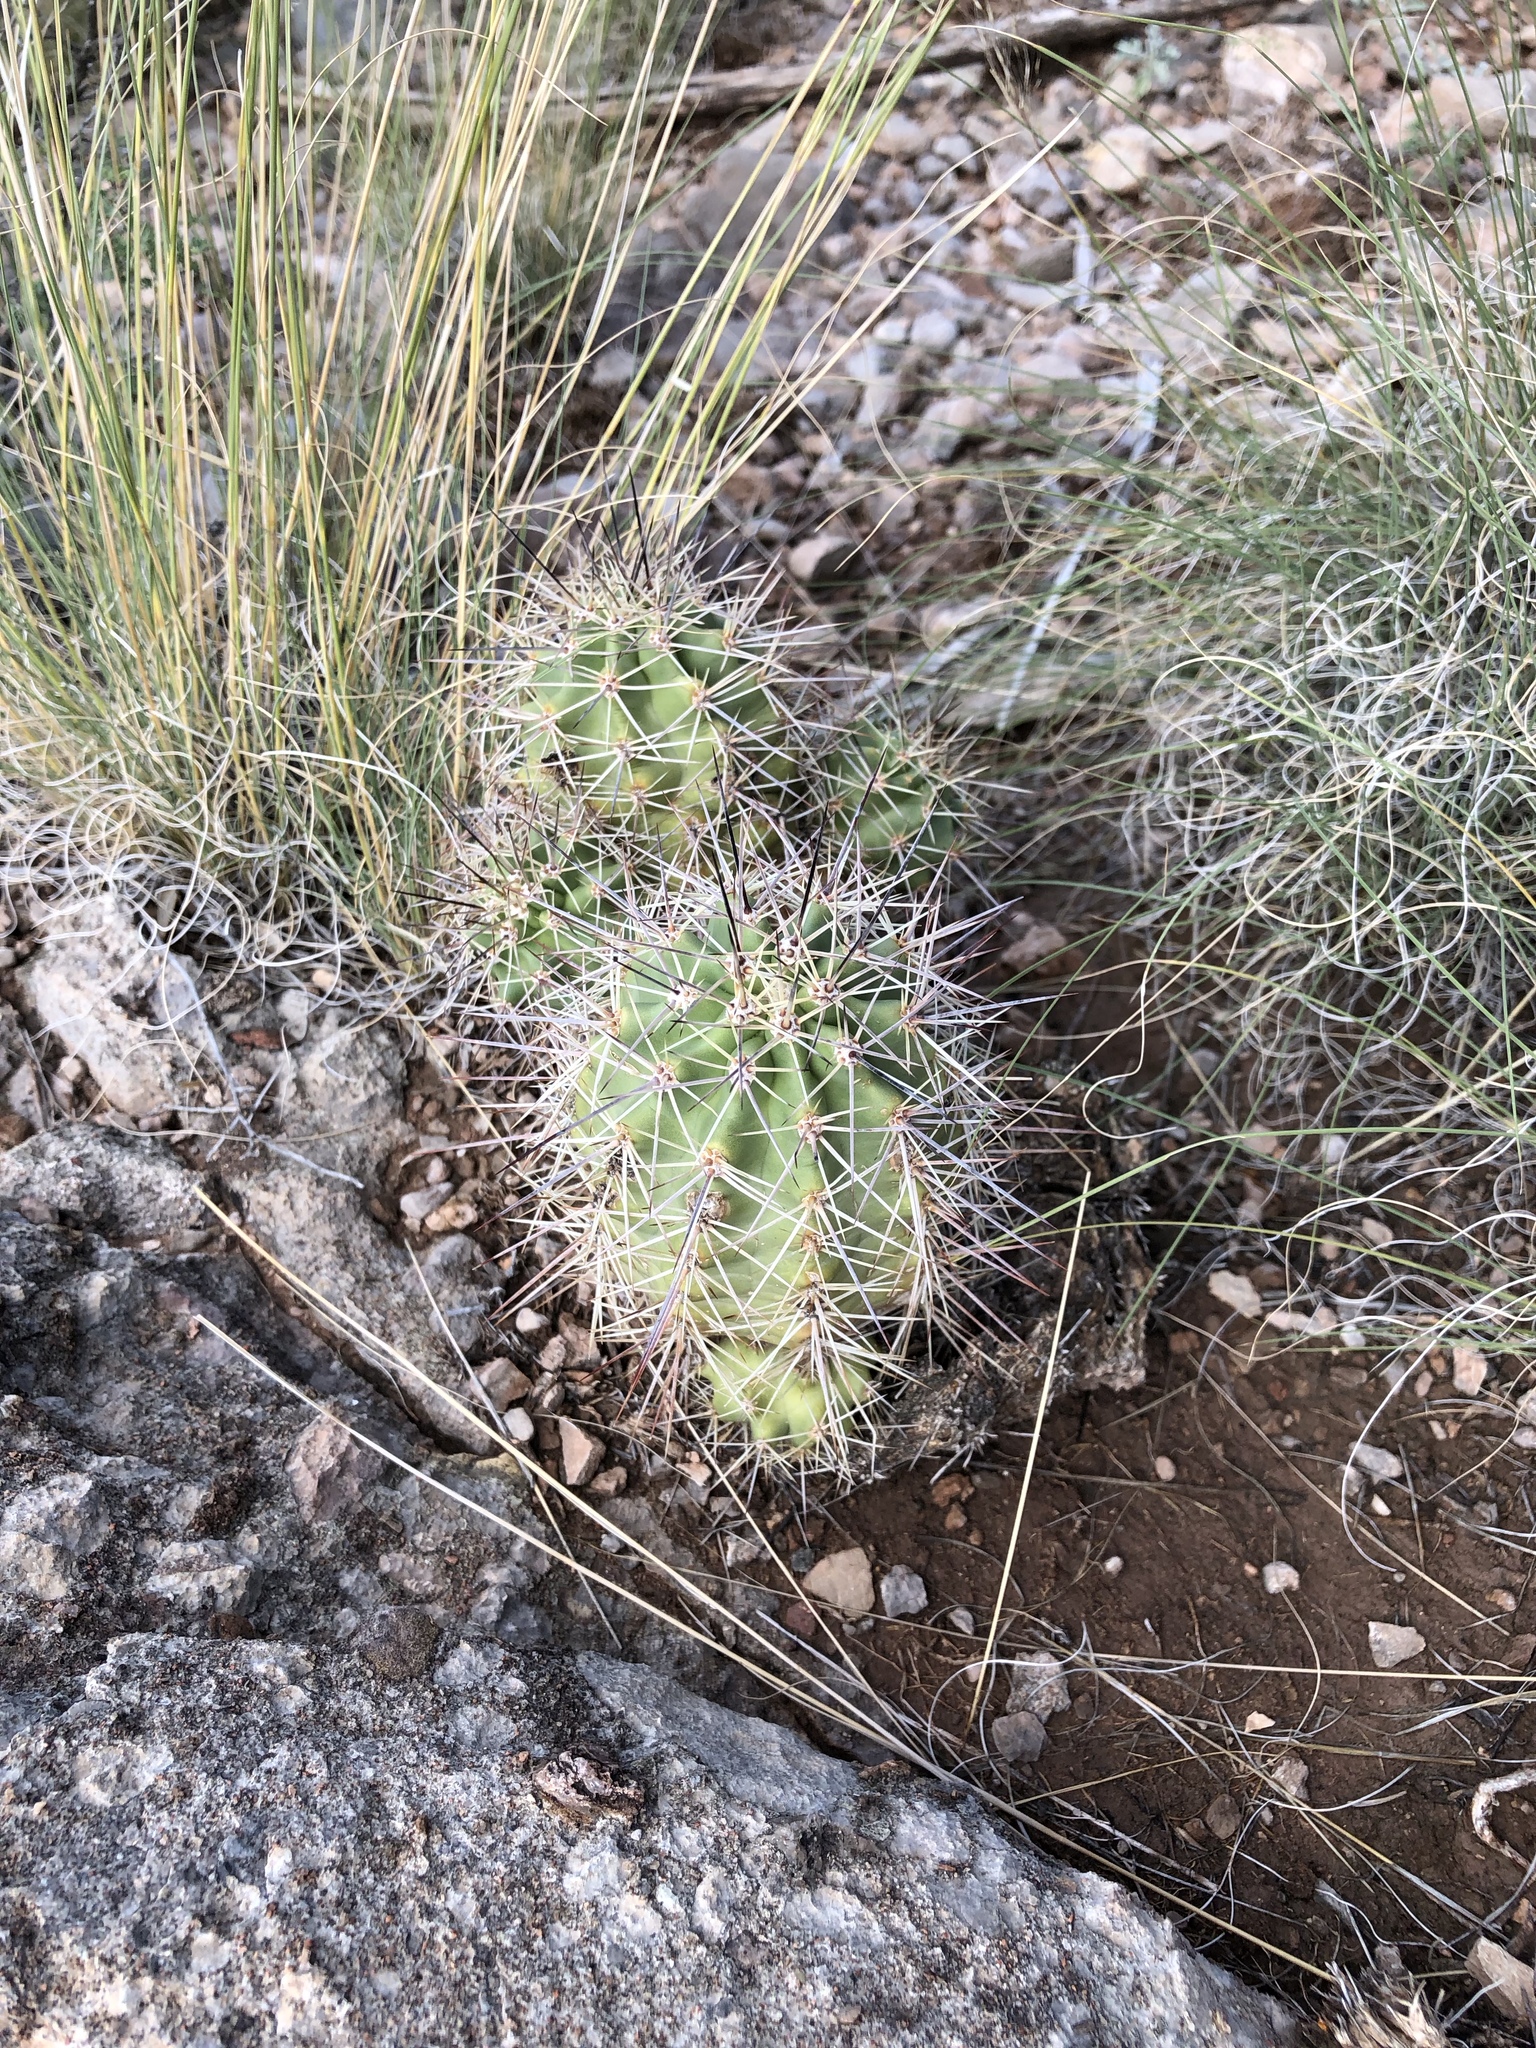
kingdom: Plantae
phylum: Tracheophyta
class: Magnoliopsida
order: Caryophyllales
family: Cactaceae
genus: Echinocereus
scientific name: Echinocereus coccineus
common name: Scarlet hedgehog cactus
